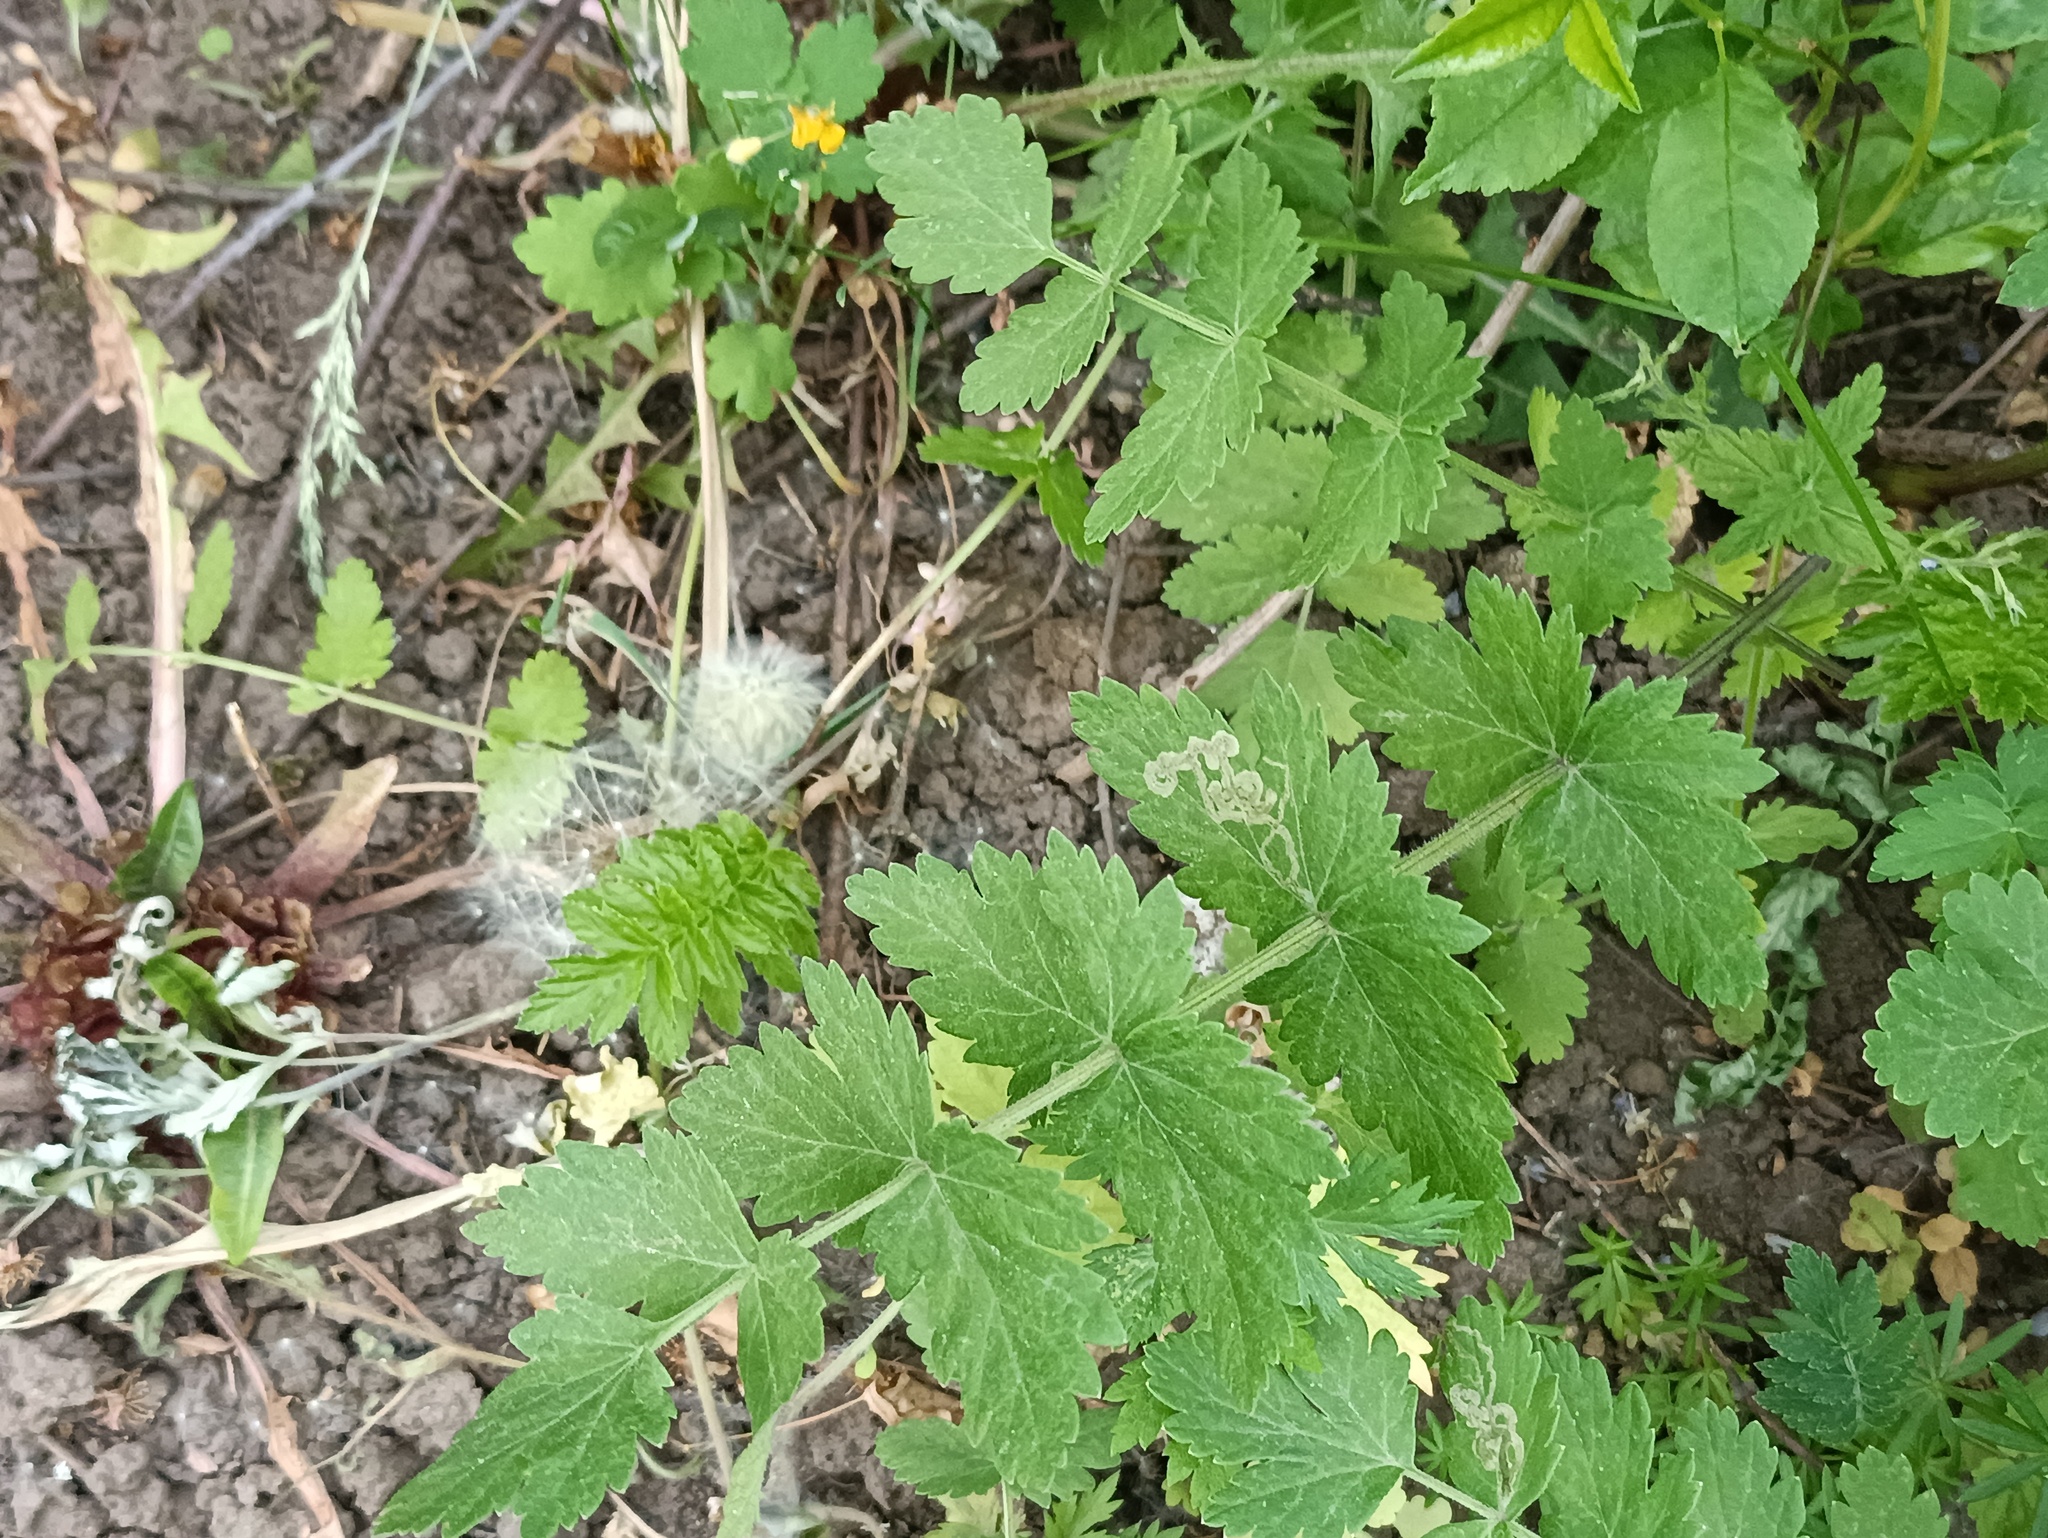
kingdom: Plantae
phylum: Tracheophyta
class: Magnoliopsida
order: Apiales
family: Apiaceae
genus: Pimpinella
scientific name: Pimpinella saxifraga
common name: Burnet-saxifrage
